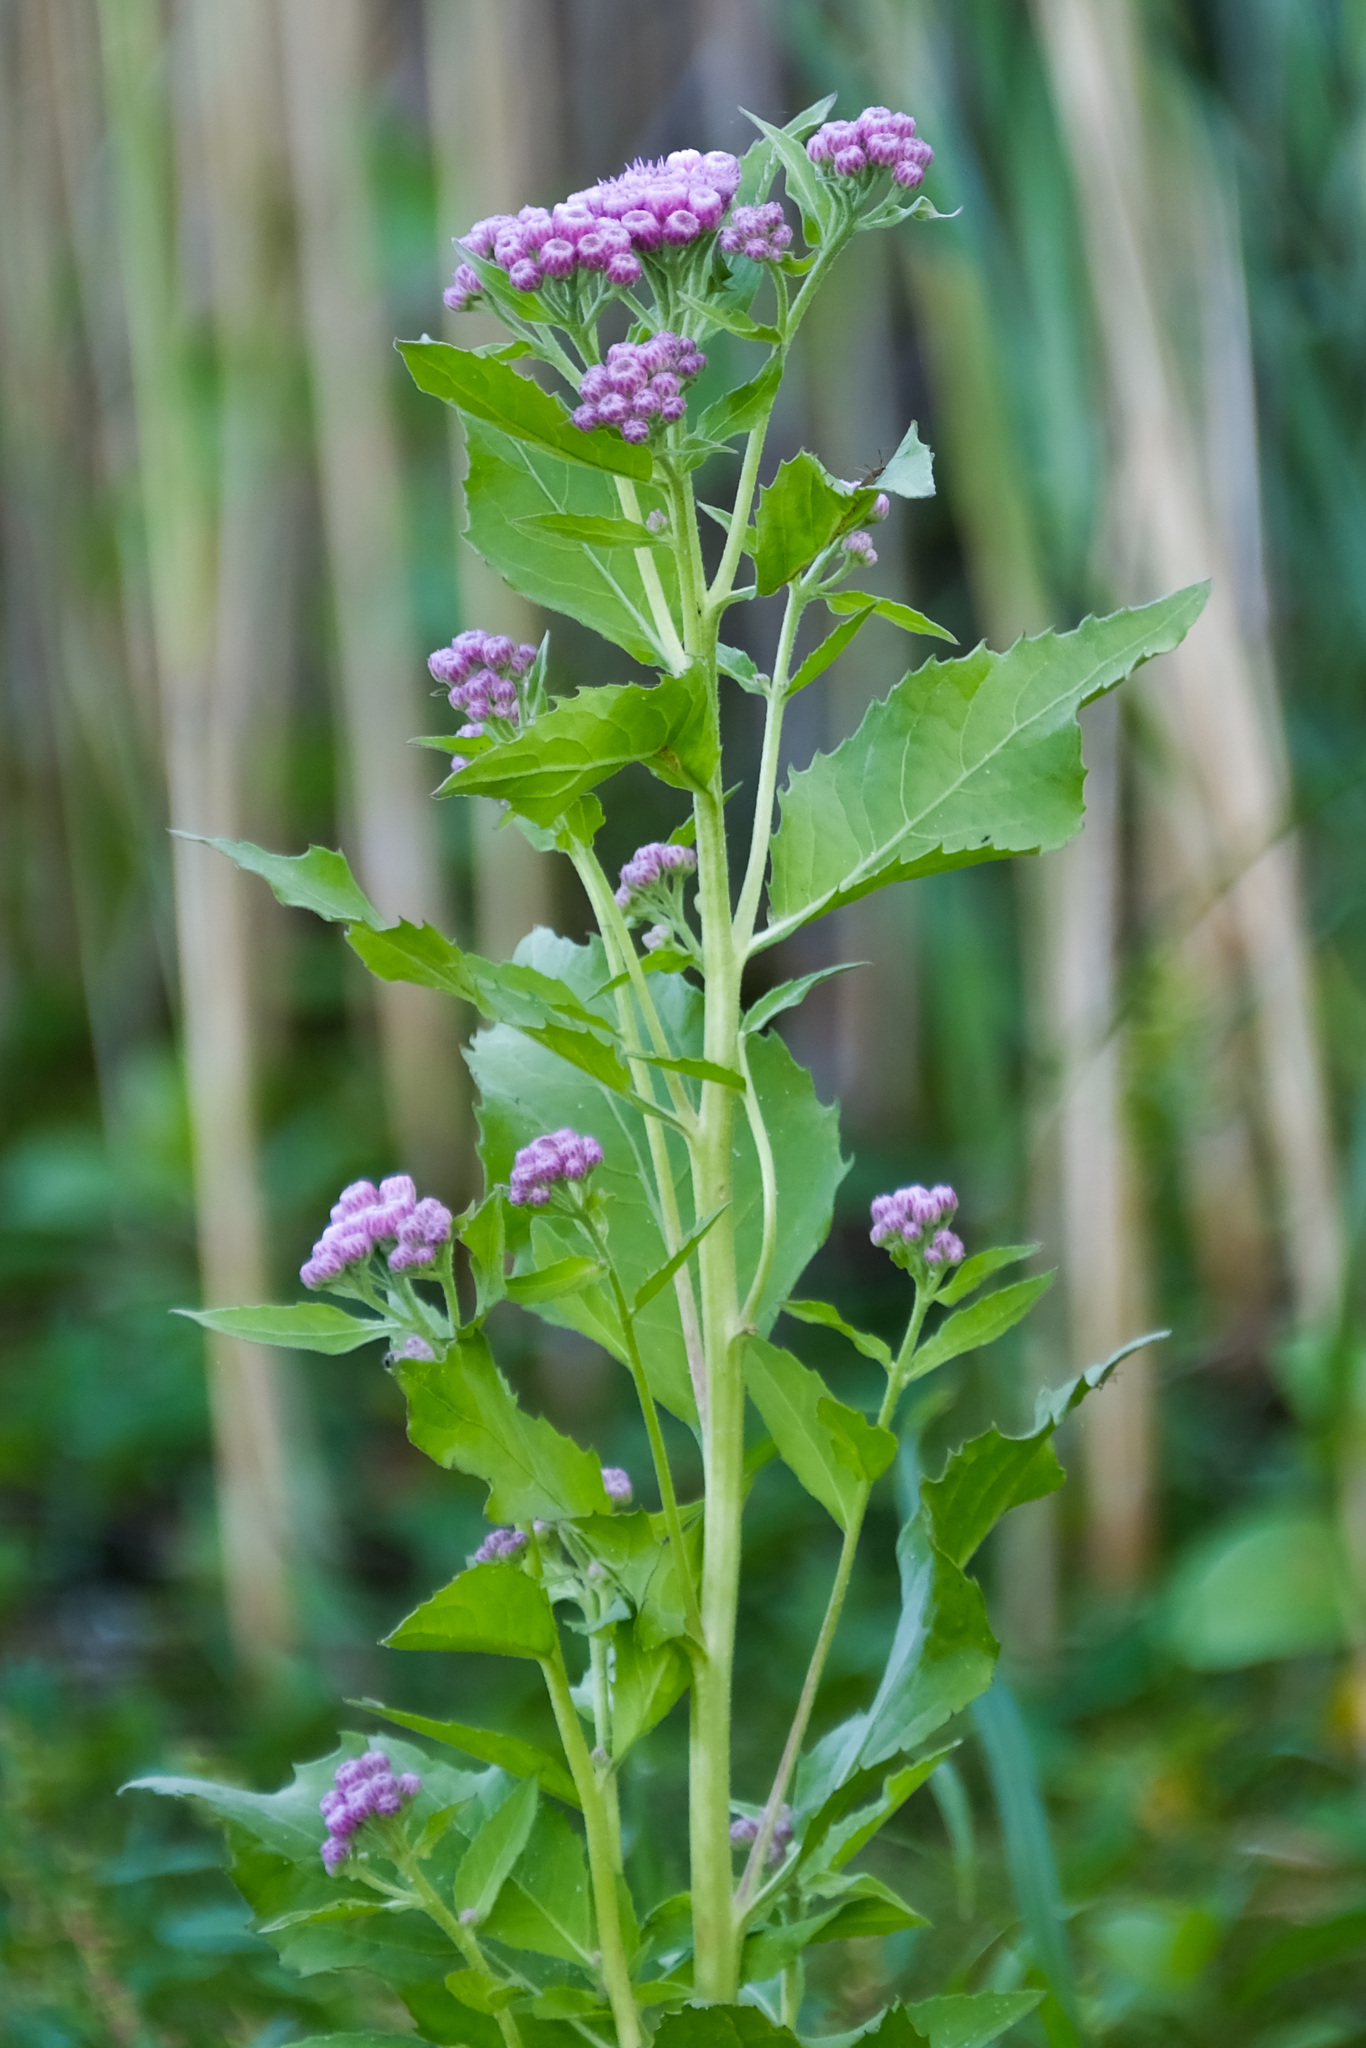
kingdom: Plantae
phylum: Tracheophyta
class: Magnoliopsida
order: Asterales
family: Asteraceae
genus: Pluchea
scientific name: Pluchea odorata
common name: Saltmarsh fleabane
